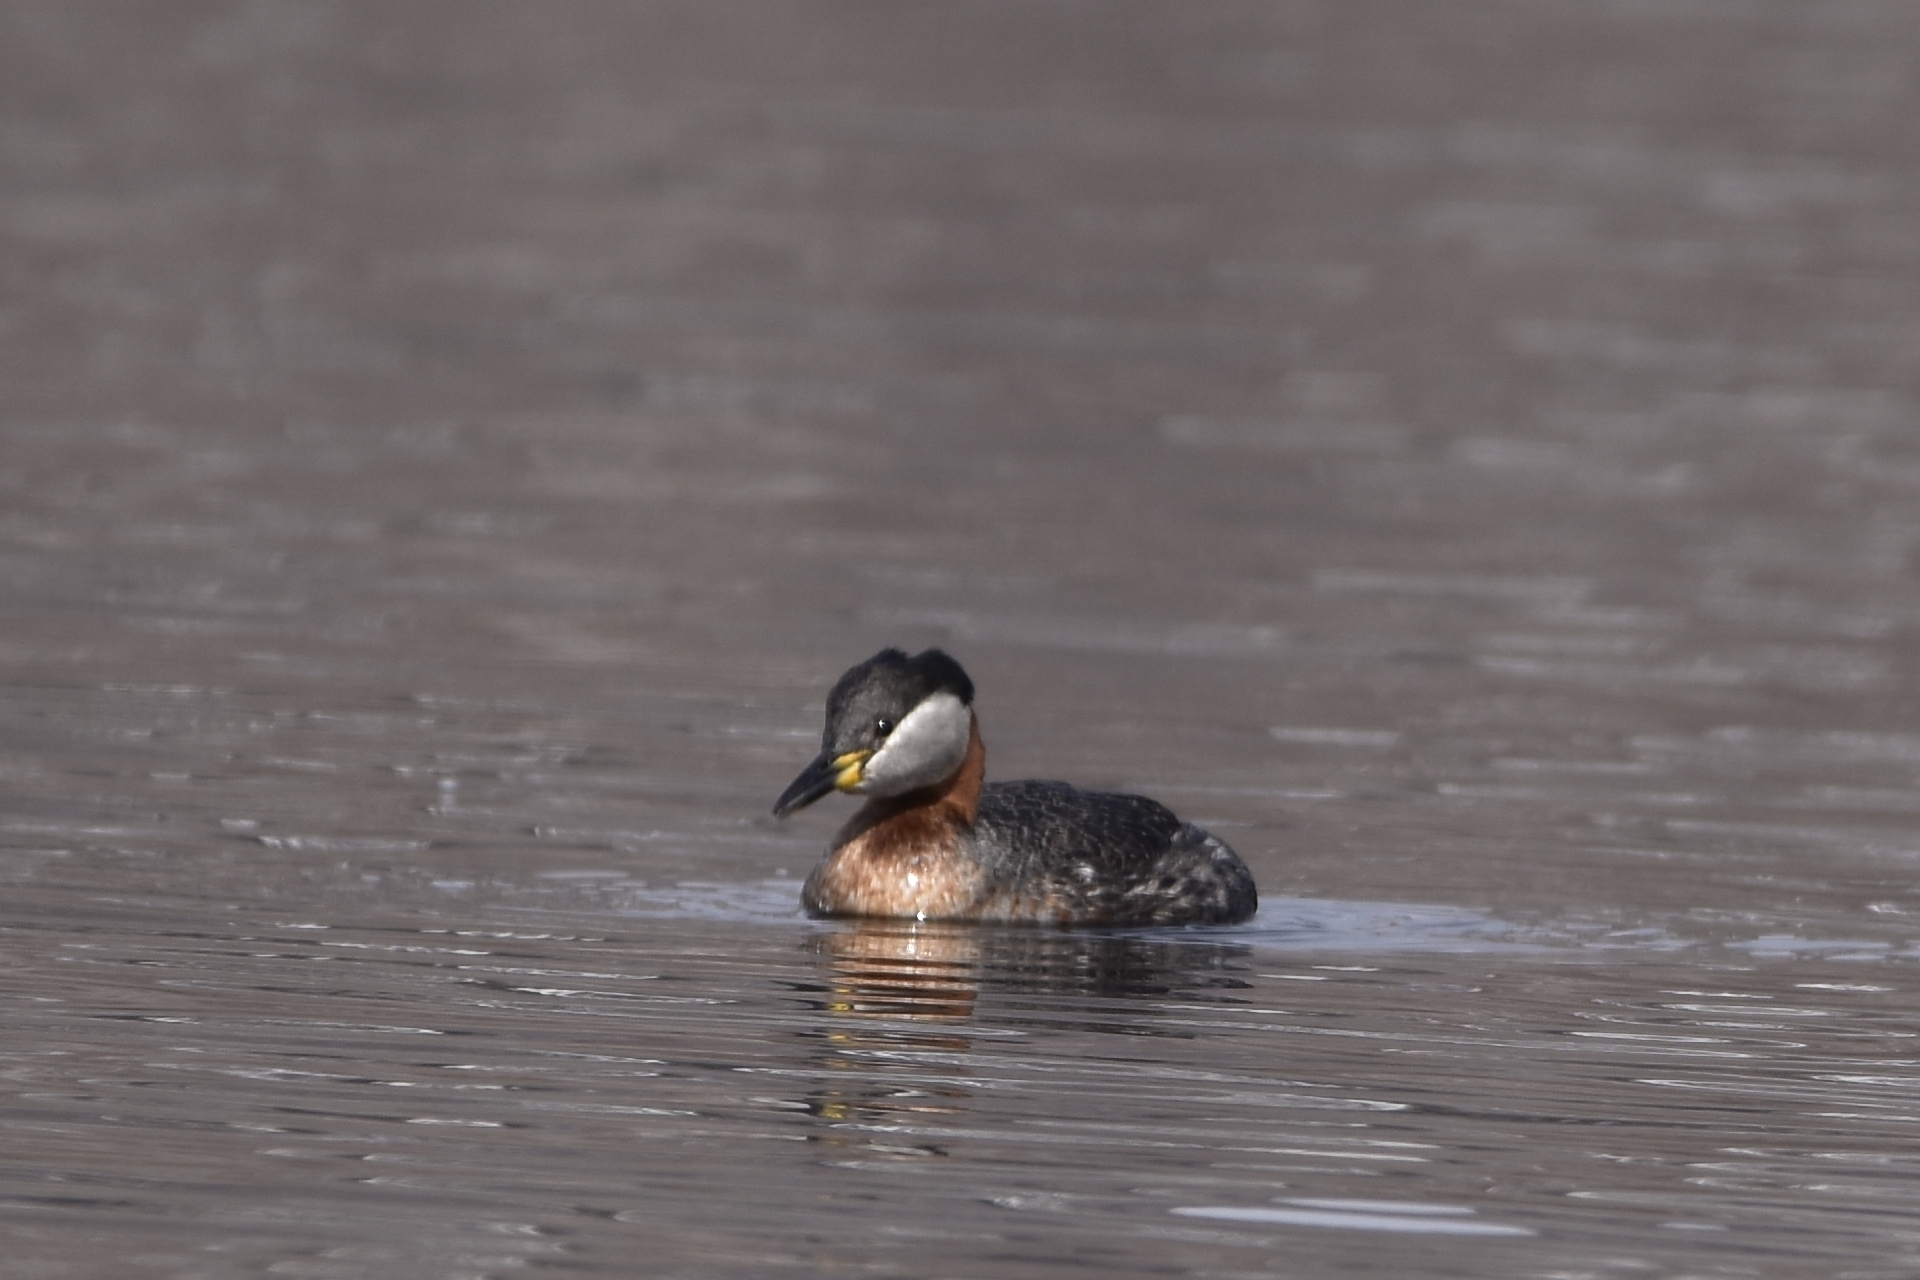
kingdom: Animalia
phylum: Chordata
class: Aves
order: Podicipediformes
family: Podicipedidae
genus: Podiceps
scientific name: Podiceps grisegena
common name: Red-necked grebe
